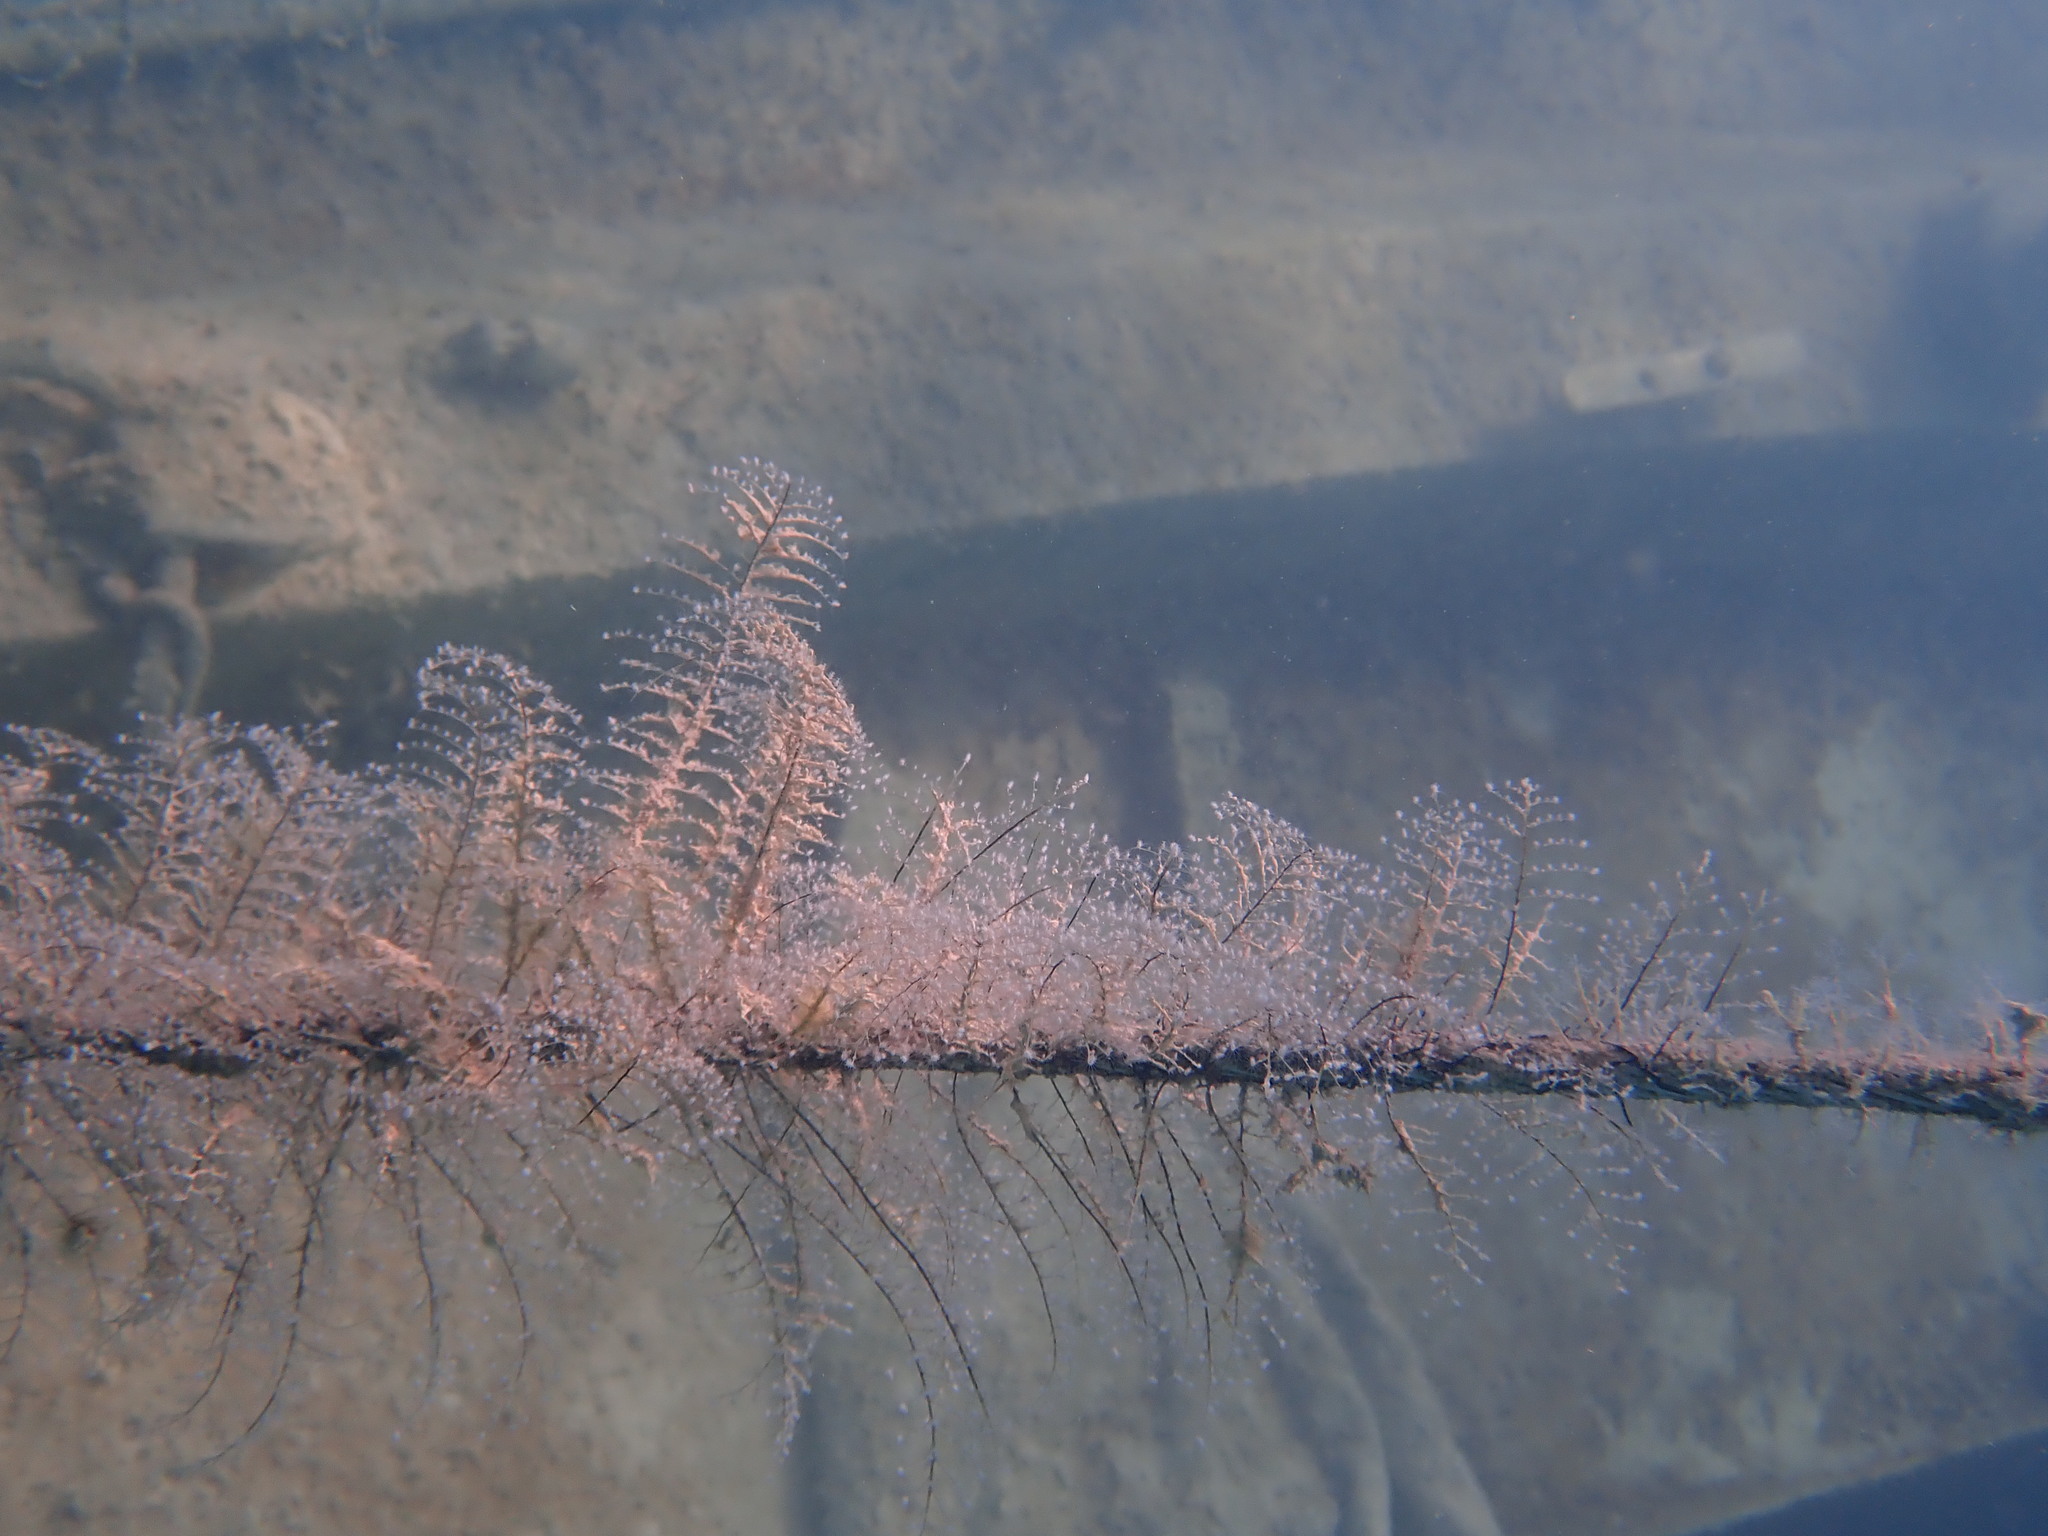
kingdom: Animalia
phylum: Cnidaria
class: Hydrozoa
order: Anthoathecata
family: Pennariidae
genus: Pennaria
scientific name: Pennaria disticha
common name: Feather hydroid
